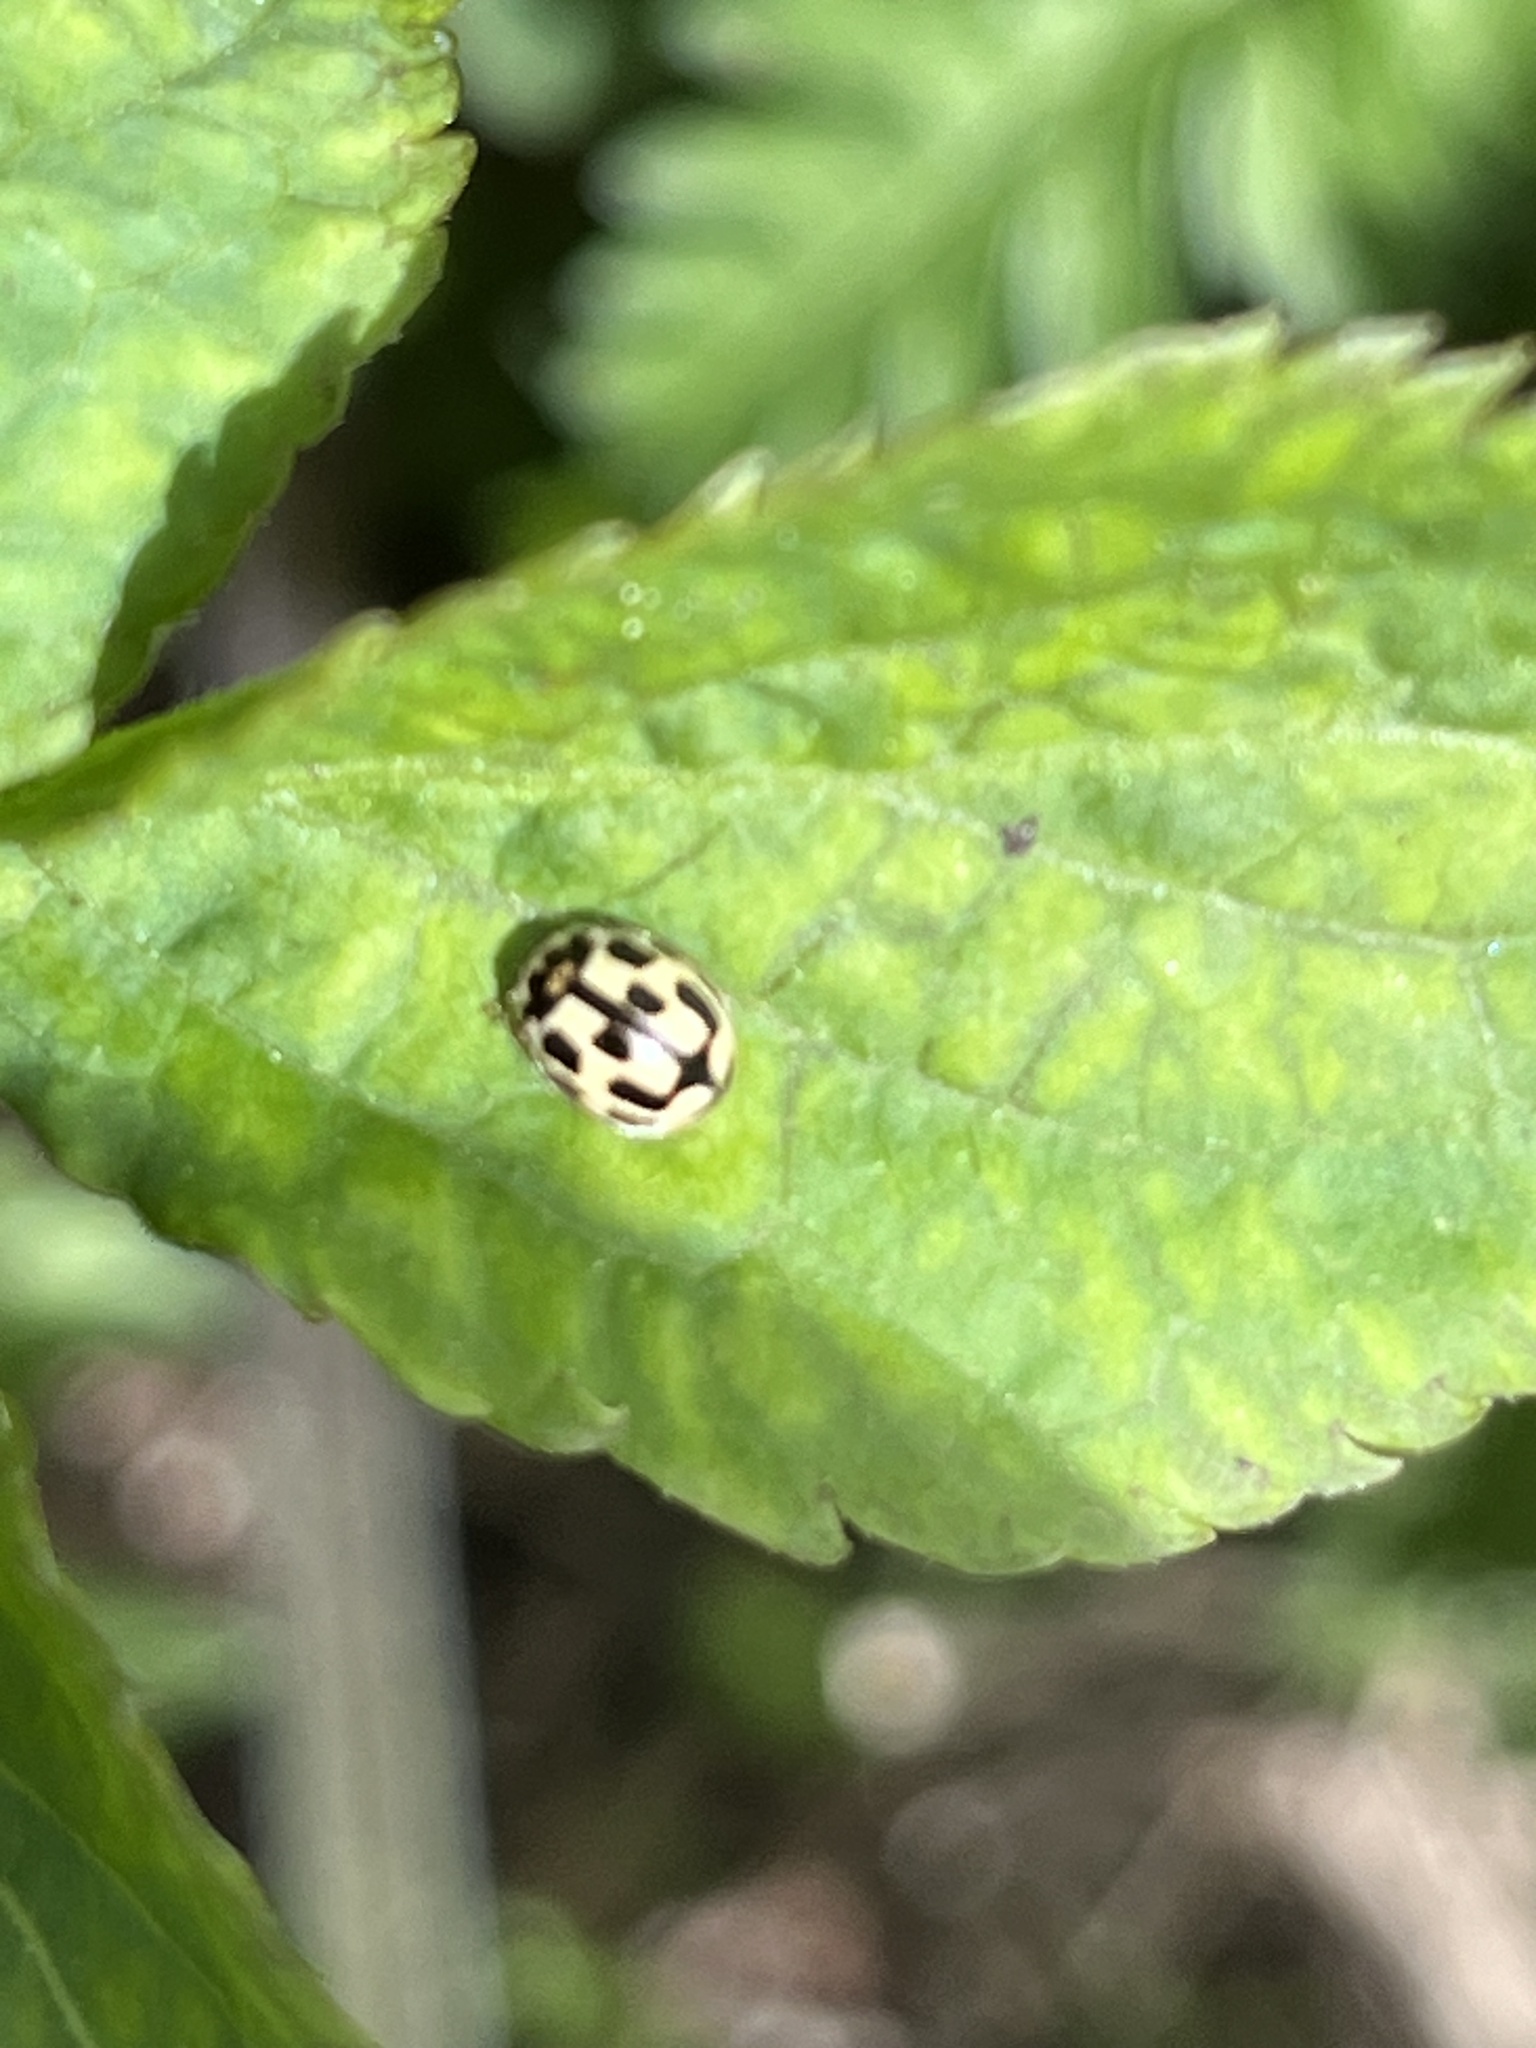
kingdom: Animalia
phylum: Arthropoda
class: Insecta
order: Coleoptera
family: Coccinellidae
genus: Propylaea
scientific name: Propylaea quatuordecimpunctata
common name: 14-spotted ladybird beetle
